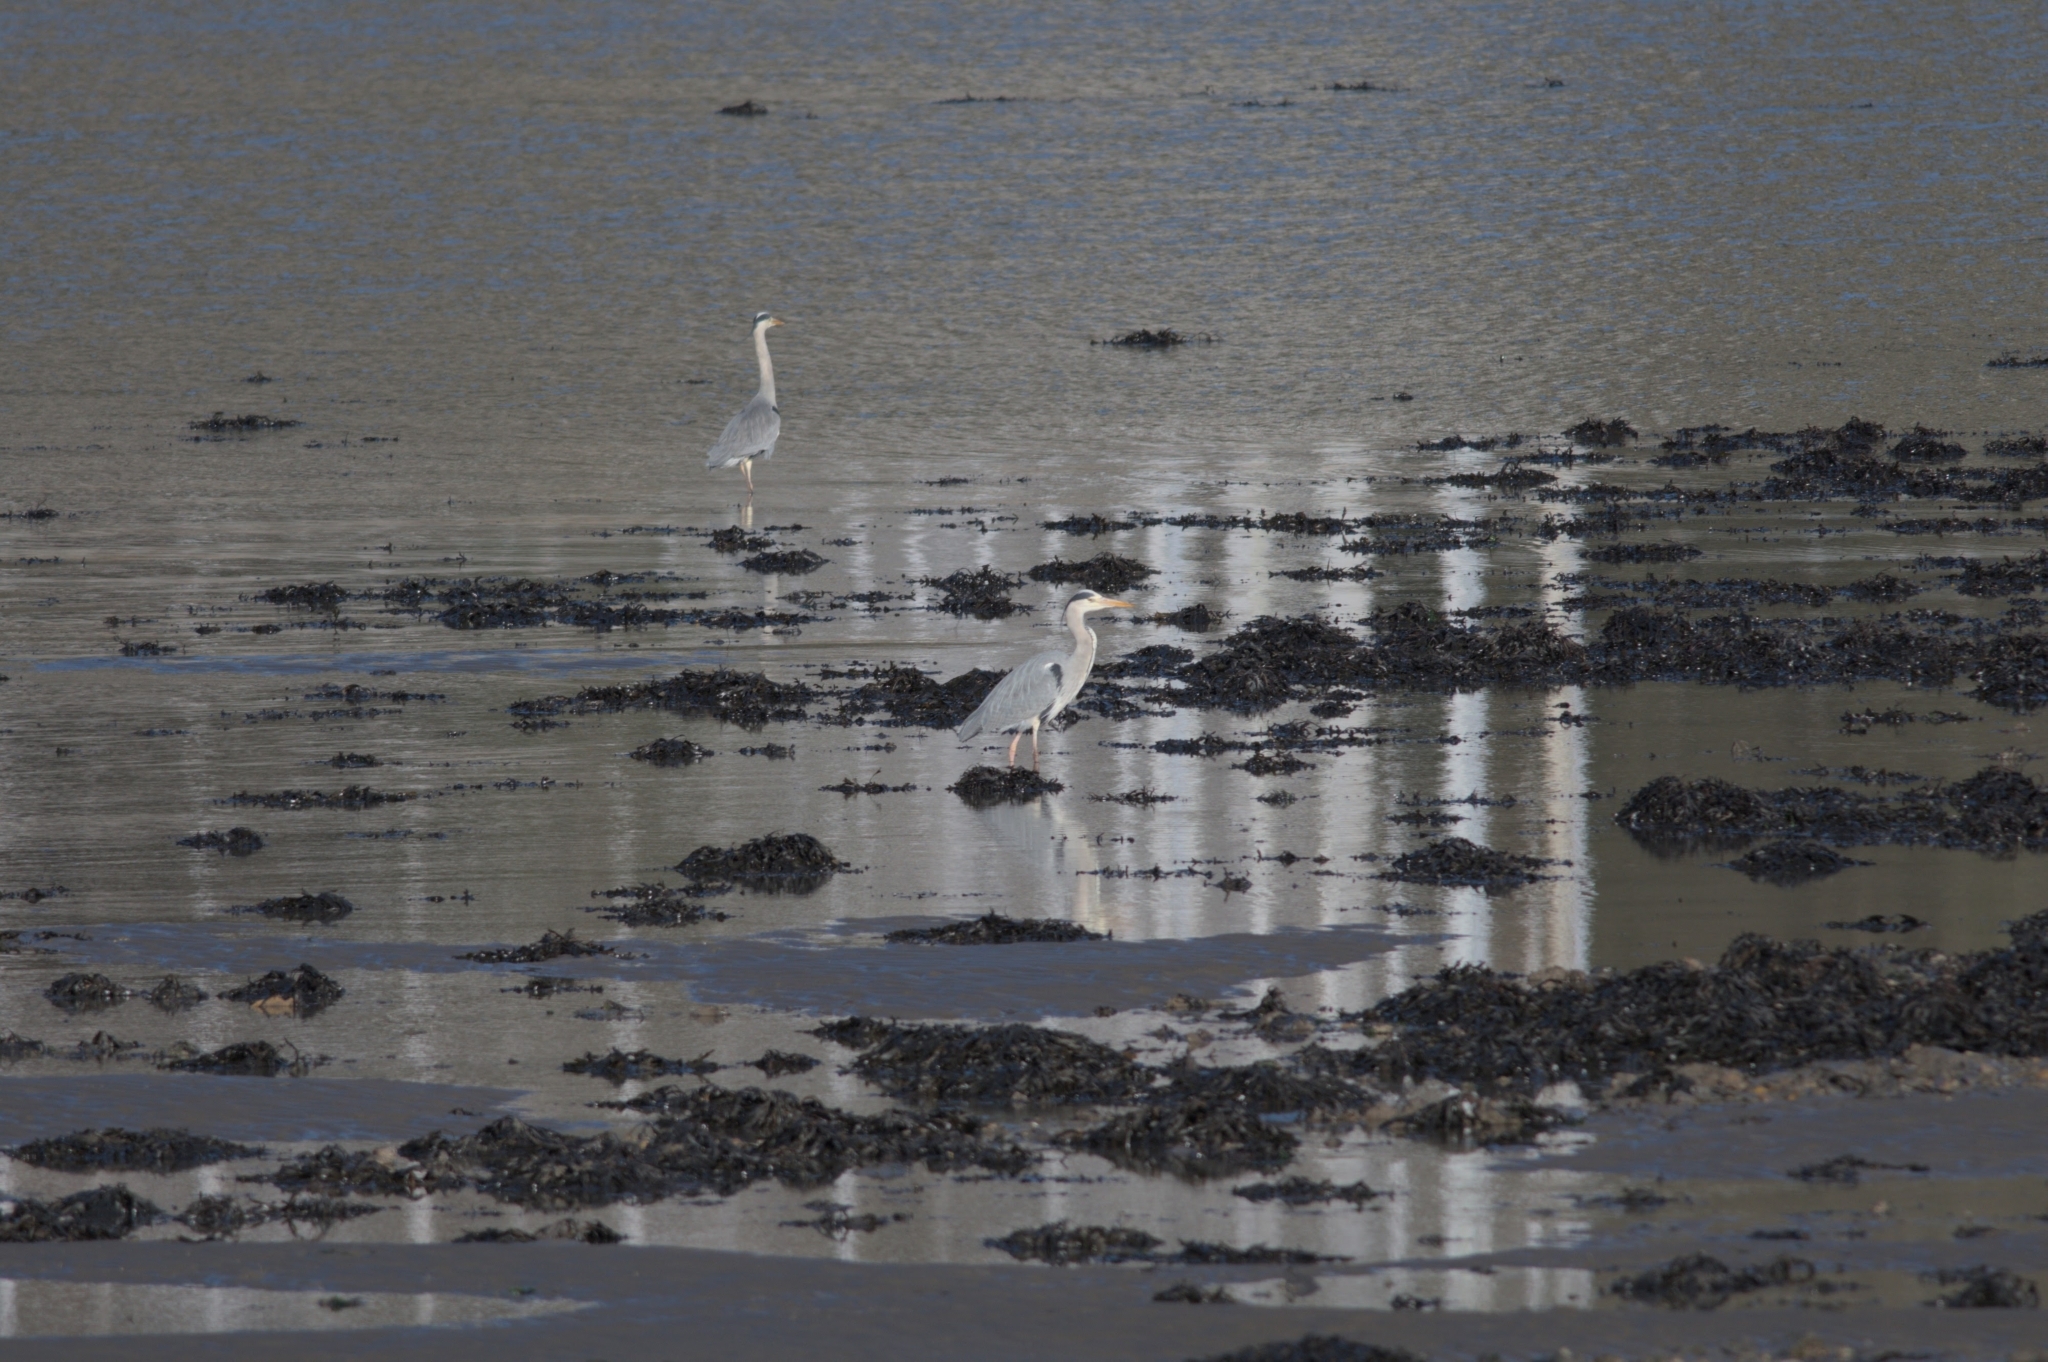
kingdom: Animalia
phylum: Chordata
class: Aves
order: Pelecaniformes
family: Ardeidae
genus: Ardea
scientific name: Ardea cinerea
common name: Grey heron
